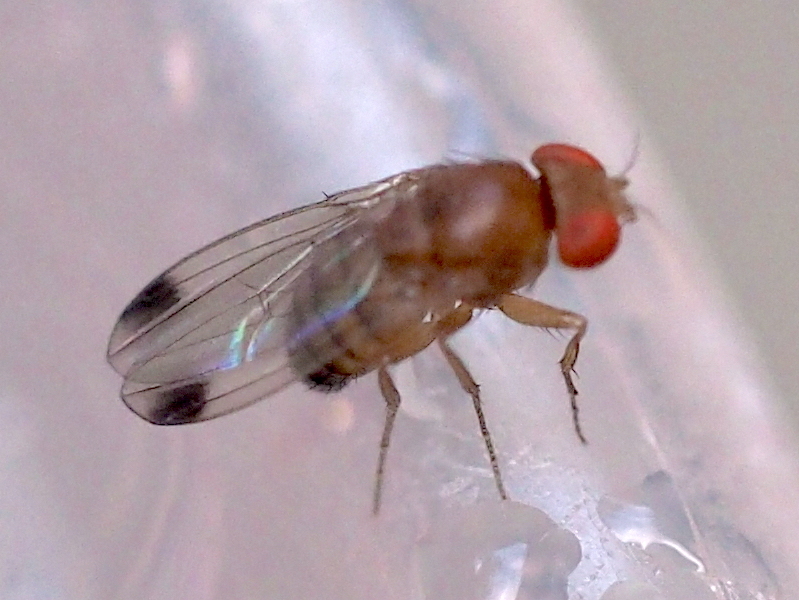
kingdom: Animalia
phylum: Arthropoda
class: Insecta
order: Diptera
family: Drosophilidae
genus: Drosophila
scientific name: Drosophila suzukii
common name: Spotted-wing drosophila
